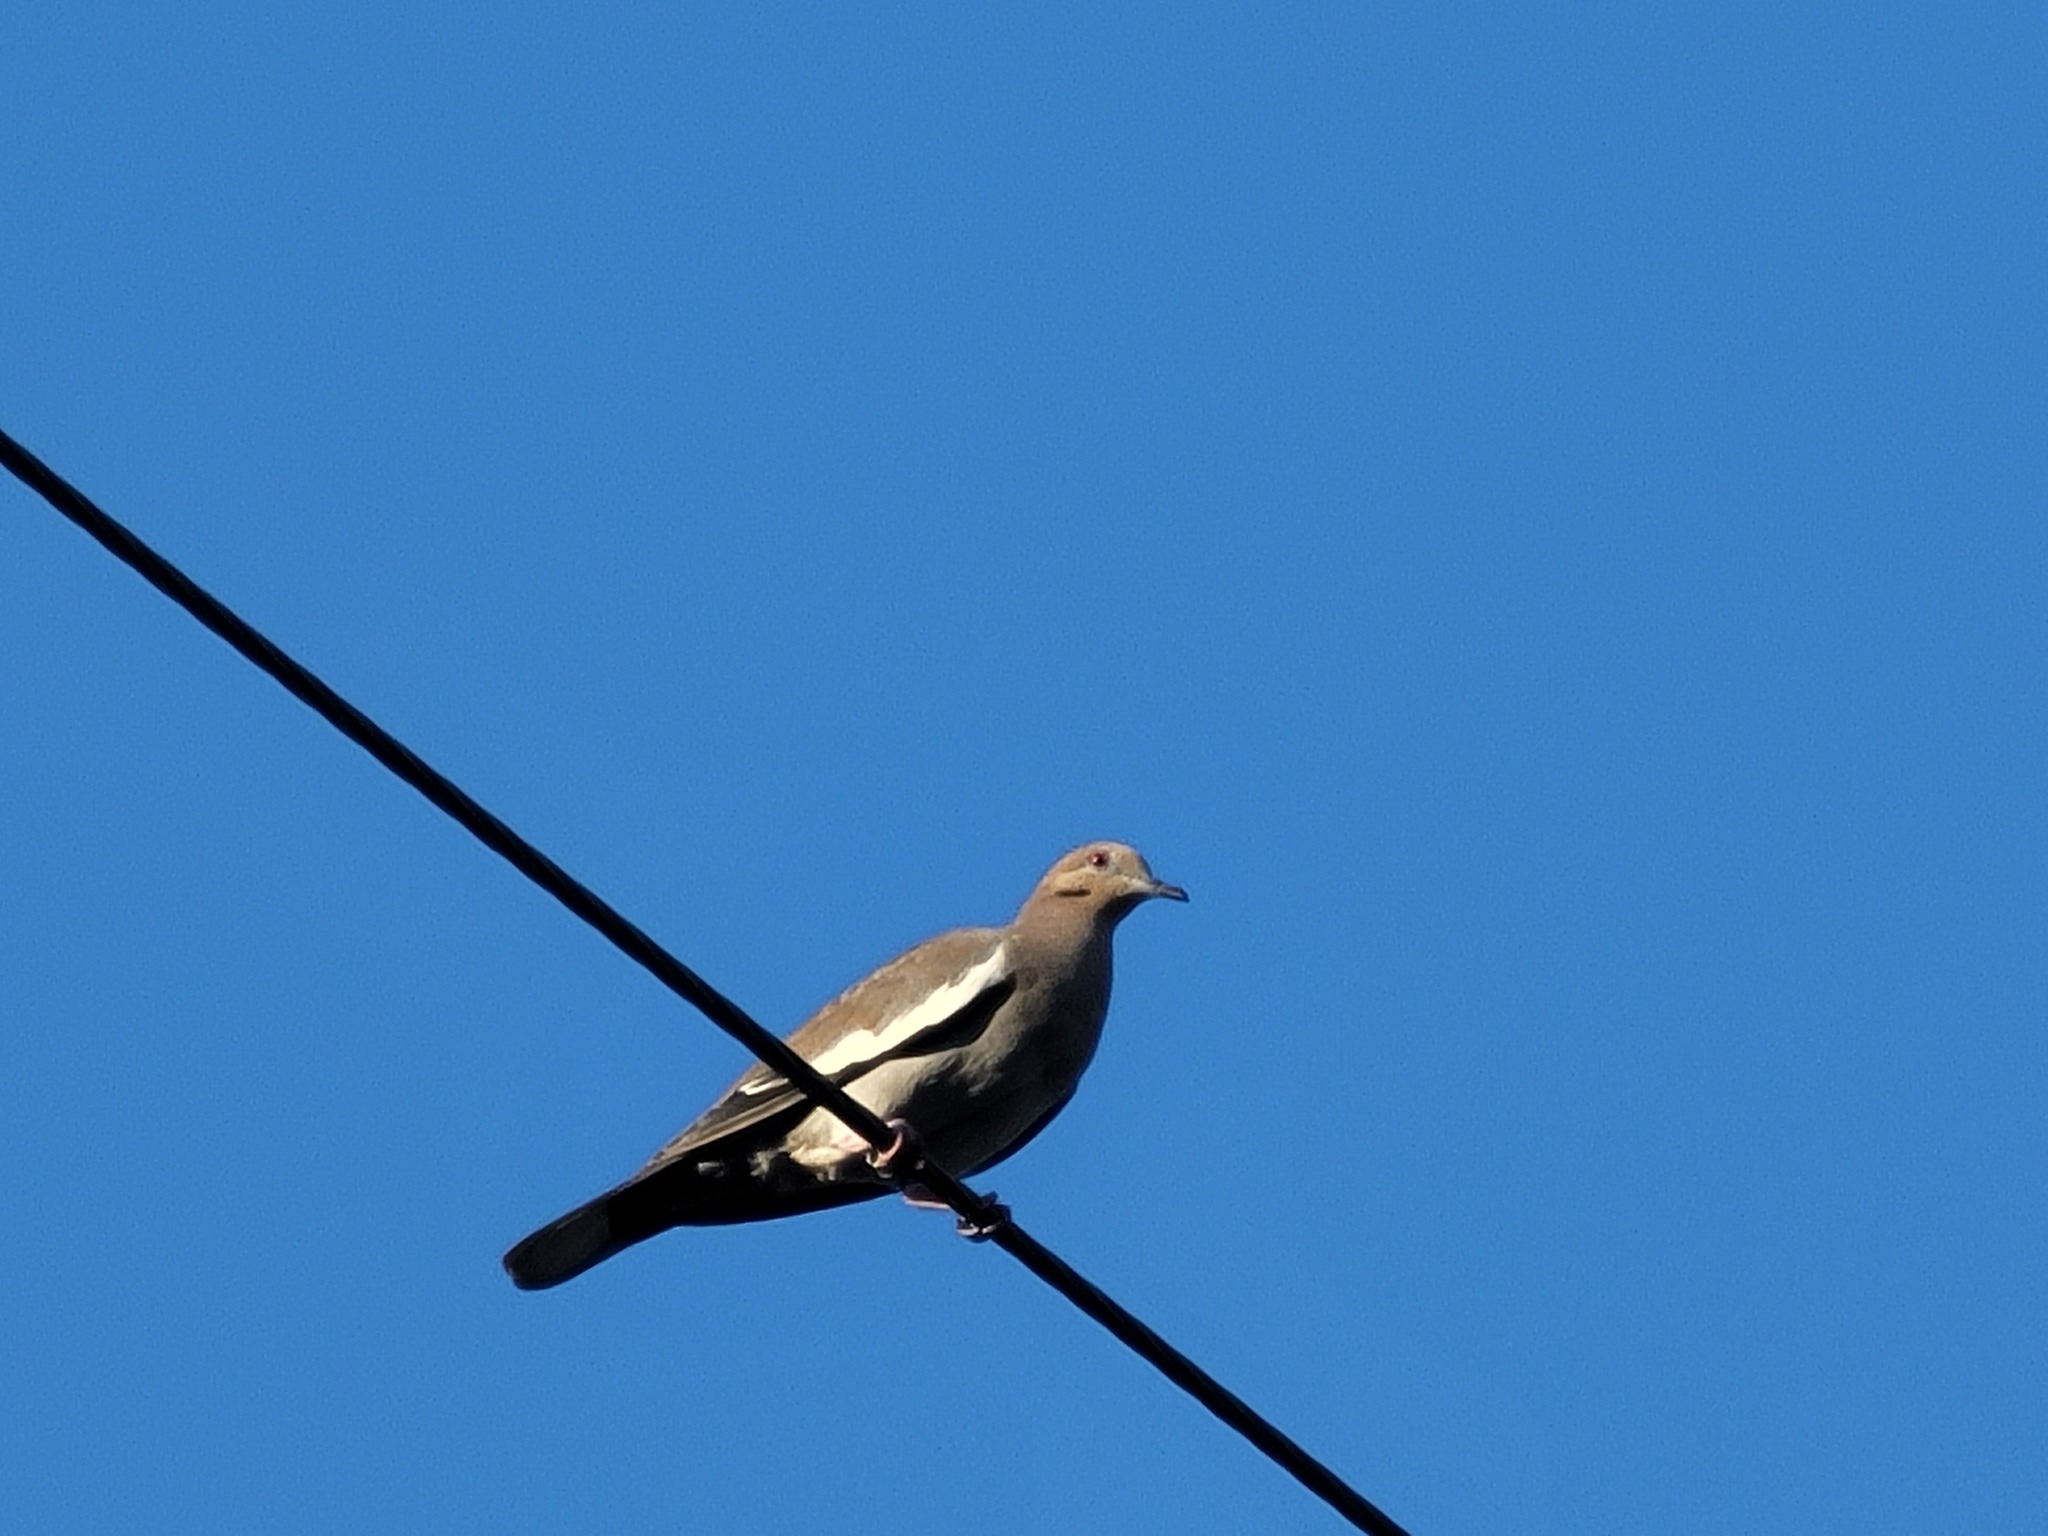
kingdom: Animalia
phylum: Chordata
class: Aves
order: Columbiformes
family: Columbidae
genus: Zenaida
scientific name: Zenaida asiatica
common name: White-winged dove
